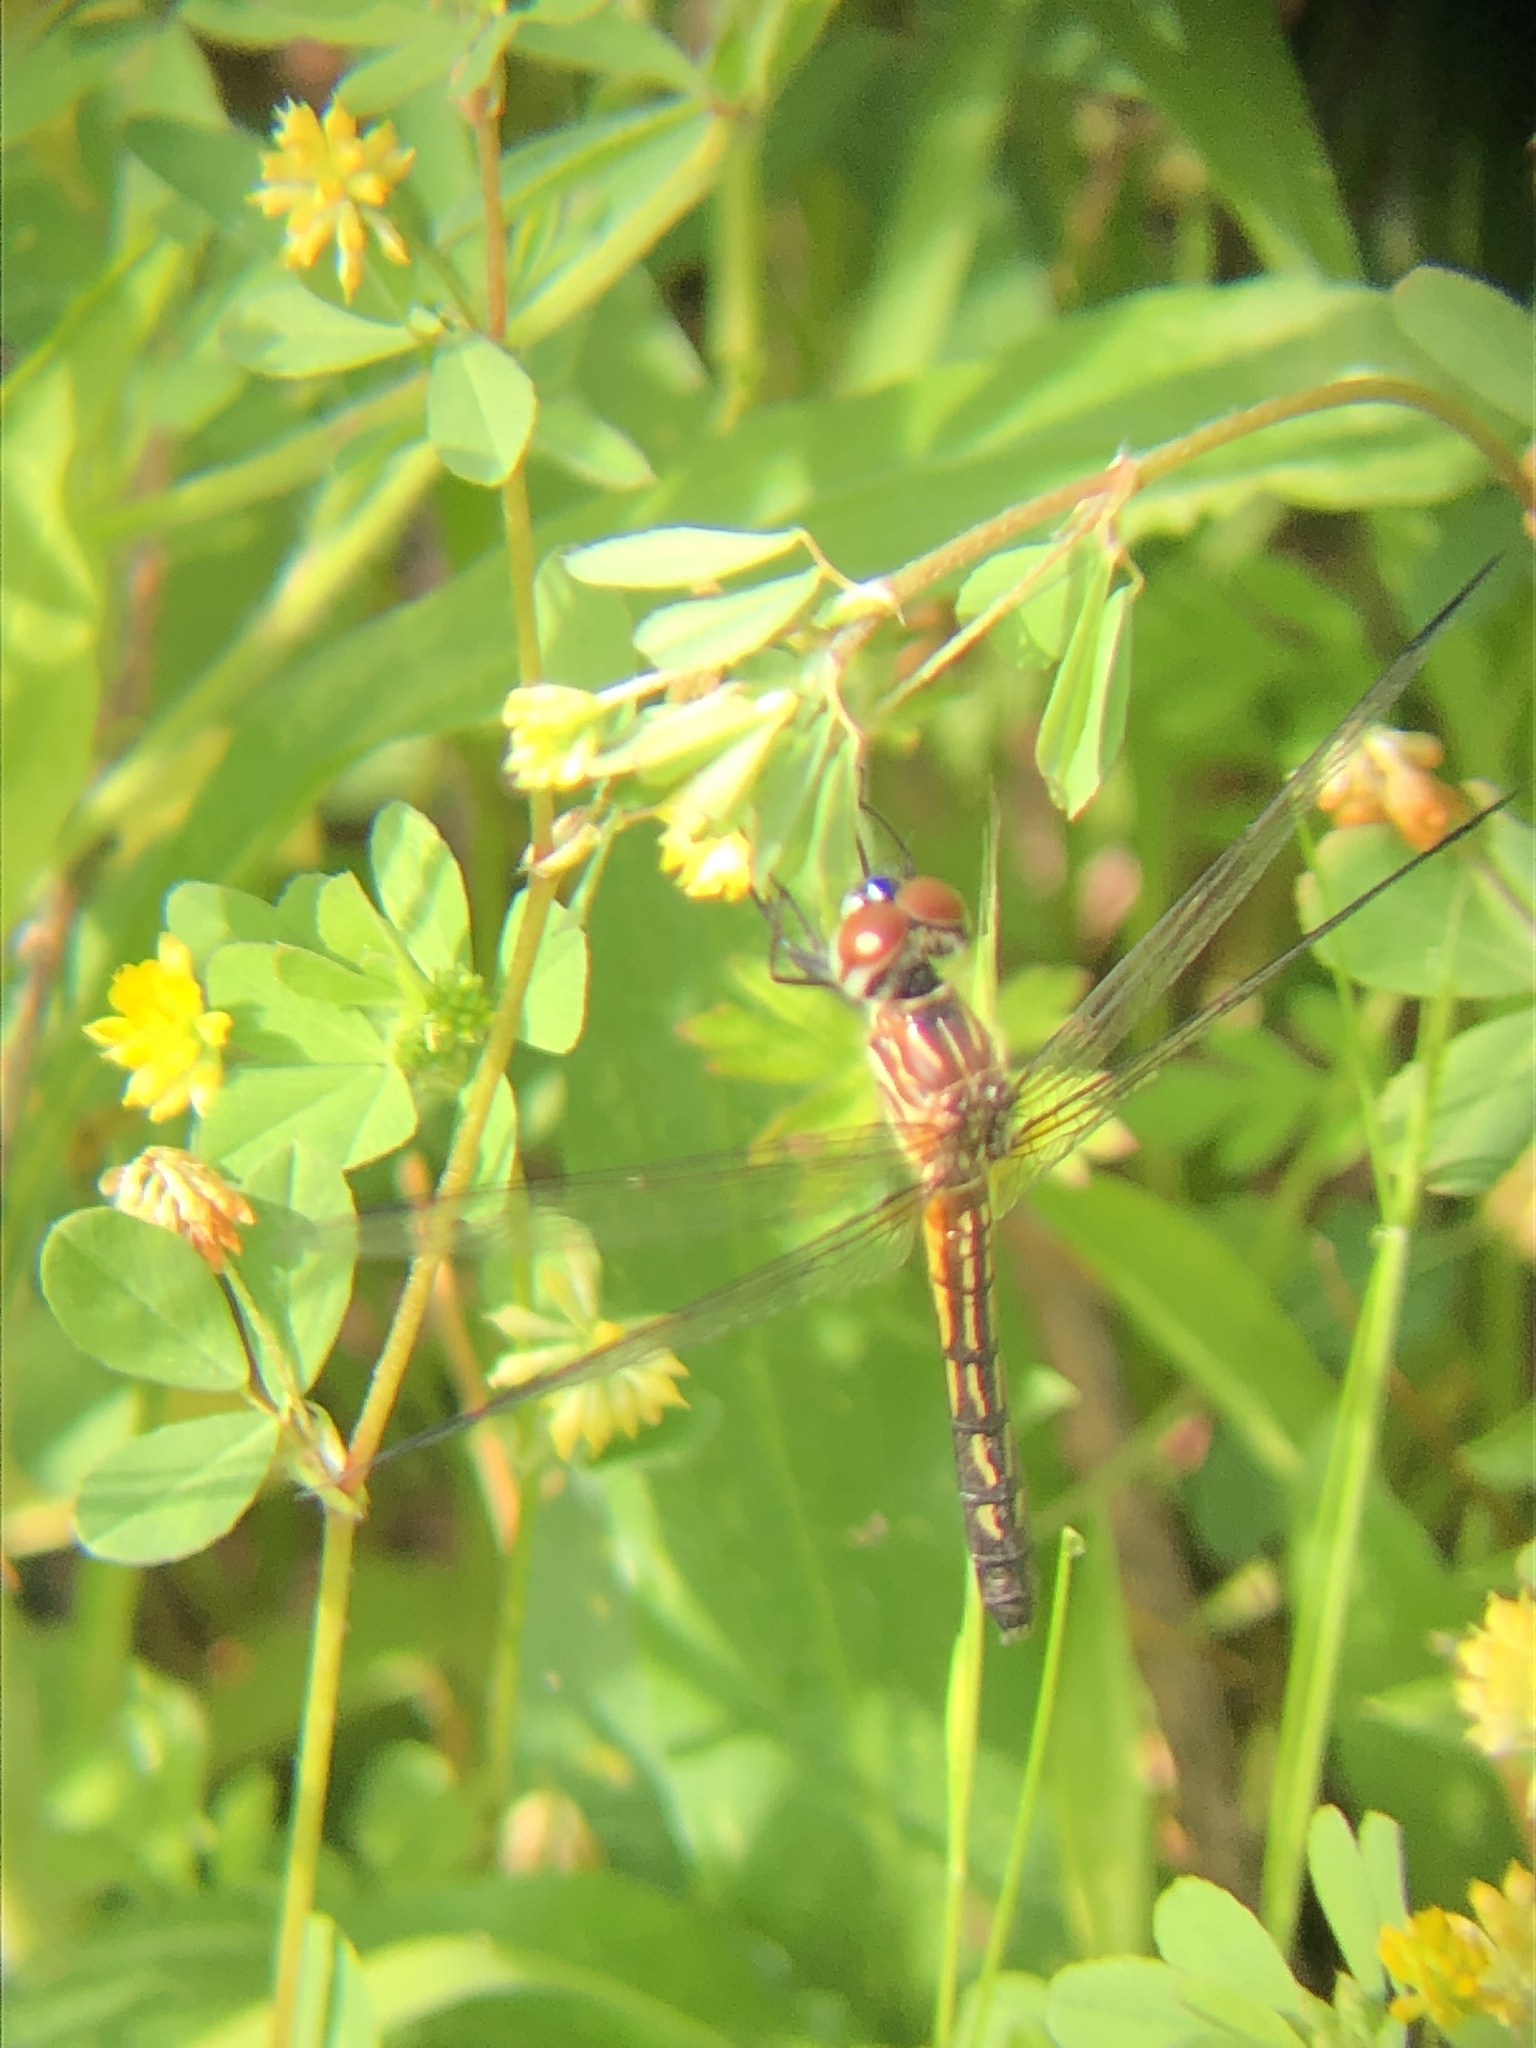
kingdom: Animalia
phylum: Arthropoda
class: Insecta
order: Odonata
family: Libellulidae
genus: Pachydiplax
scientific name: Pachydiplax longipennis
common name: Blue dasher
